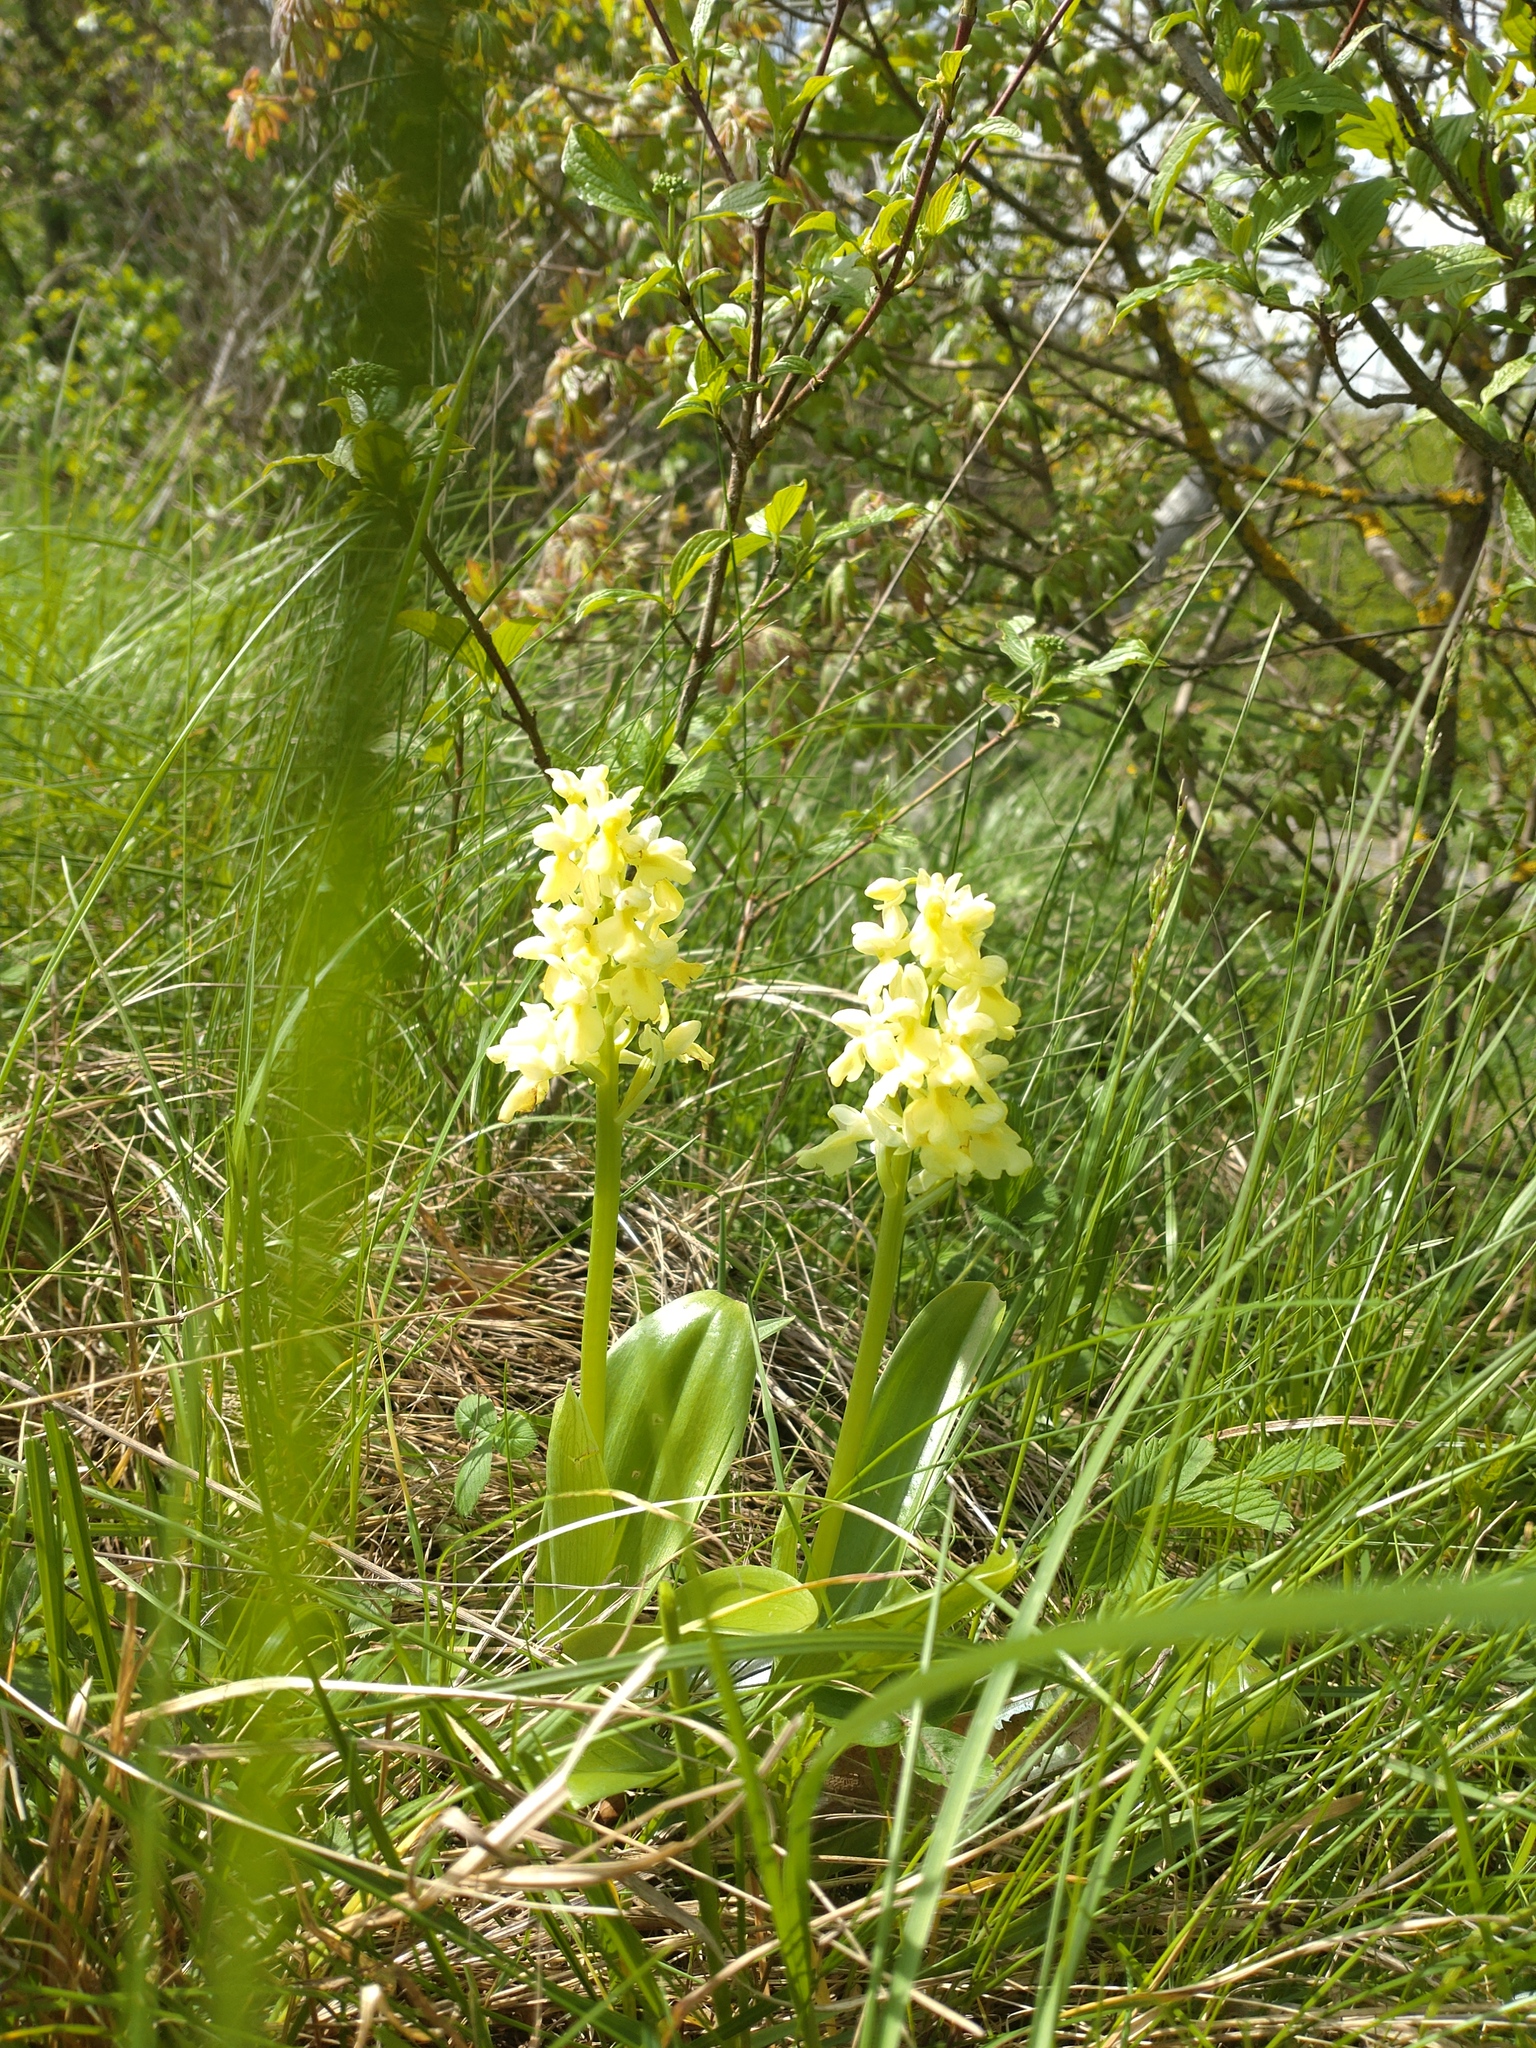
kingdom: Plantae
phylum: Tracheophyta
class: Liliopsida
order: Asparagales
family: Orchidaceae
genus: Orchis
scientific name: Orchis pallens
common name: Pale-flowered orchid
